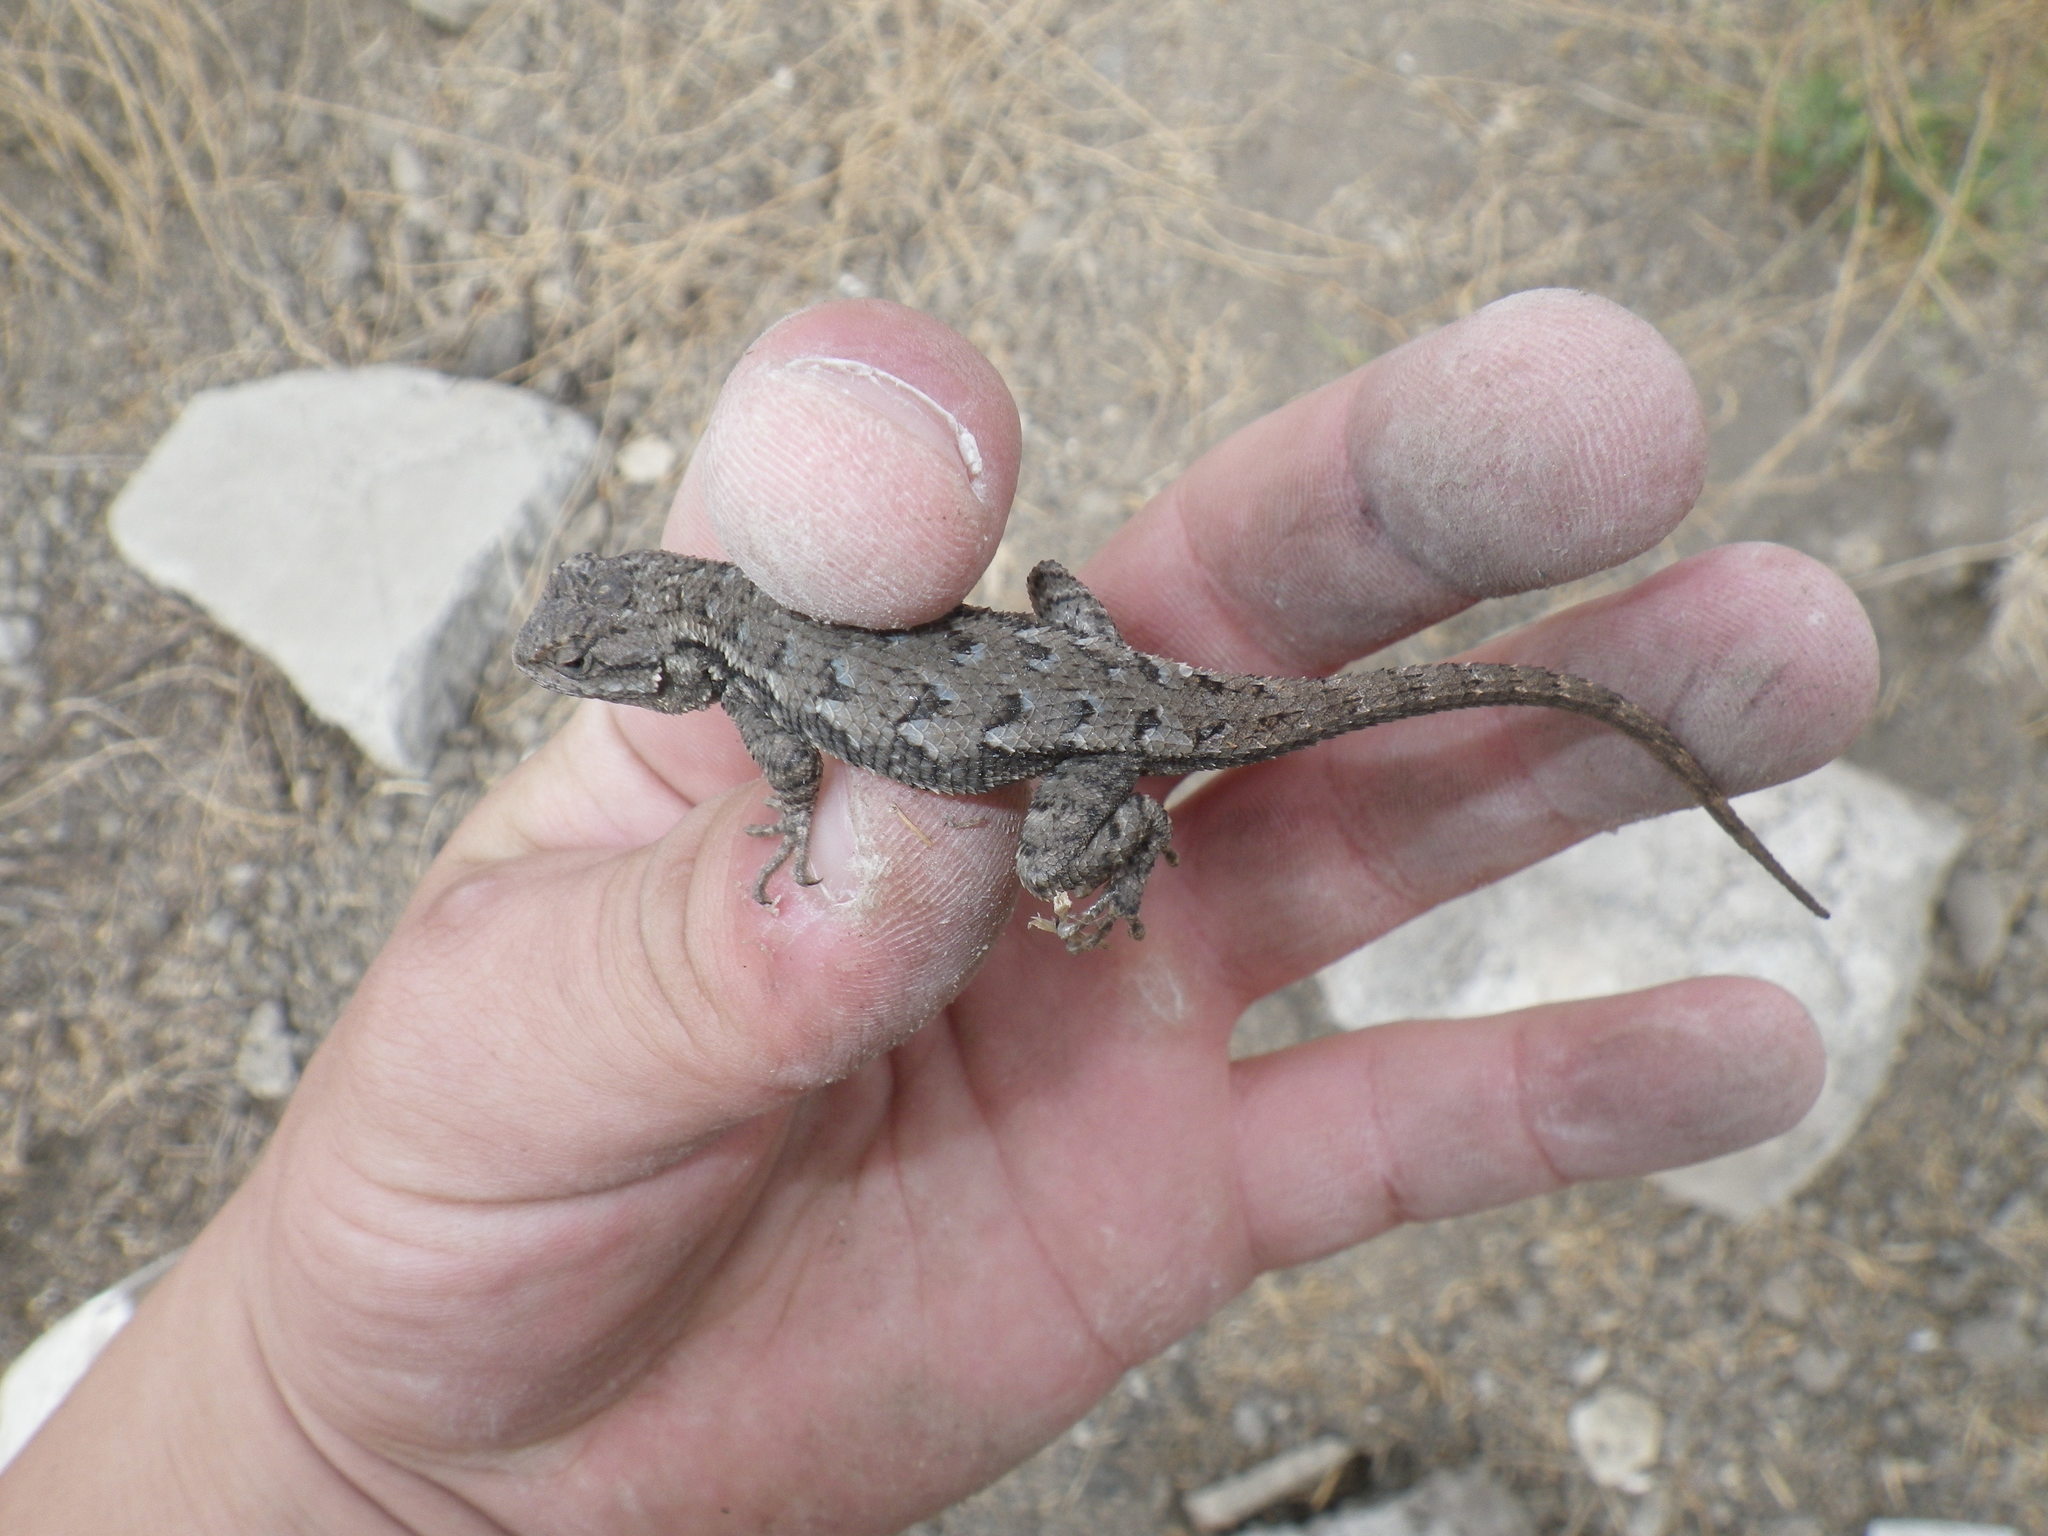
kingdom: Animalia
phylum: Chordata
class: Squamata
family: Phrynosomatidae
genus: Sceloporus
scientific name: Sceloporus occidentalis
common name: Western fence lizard
